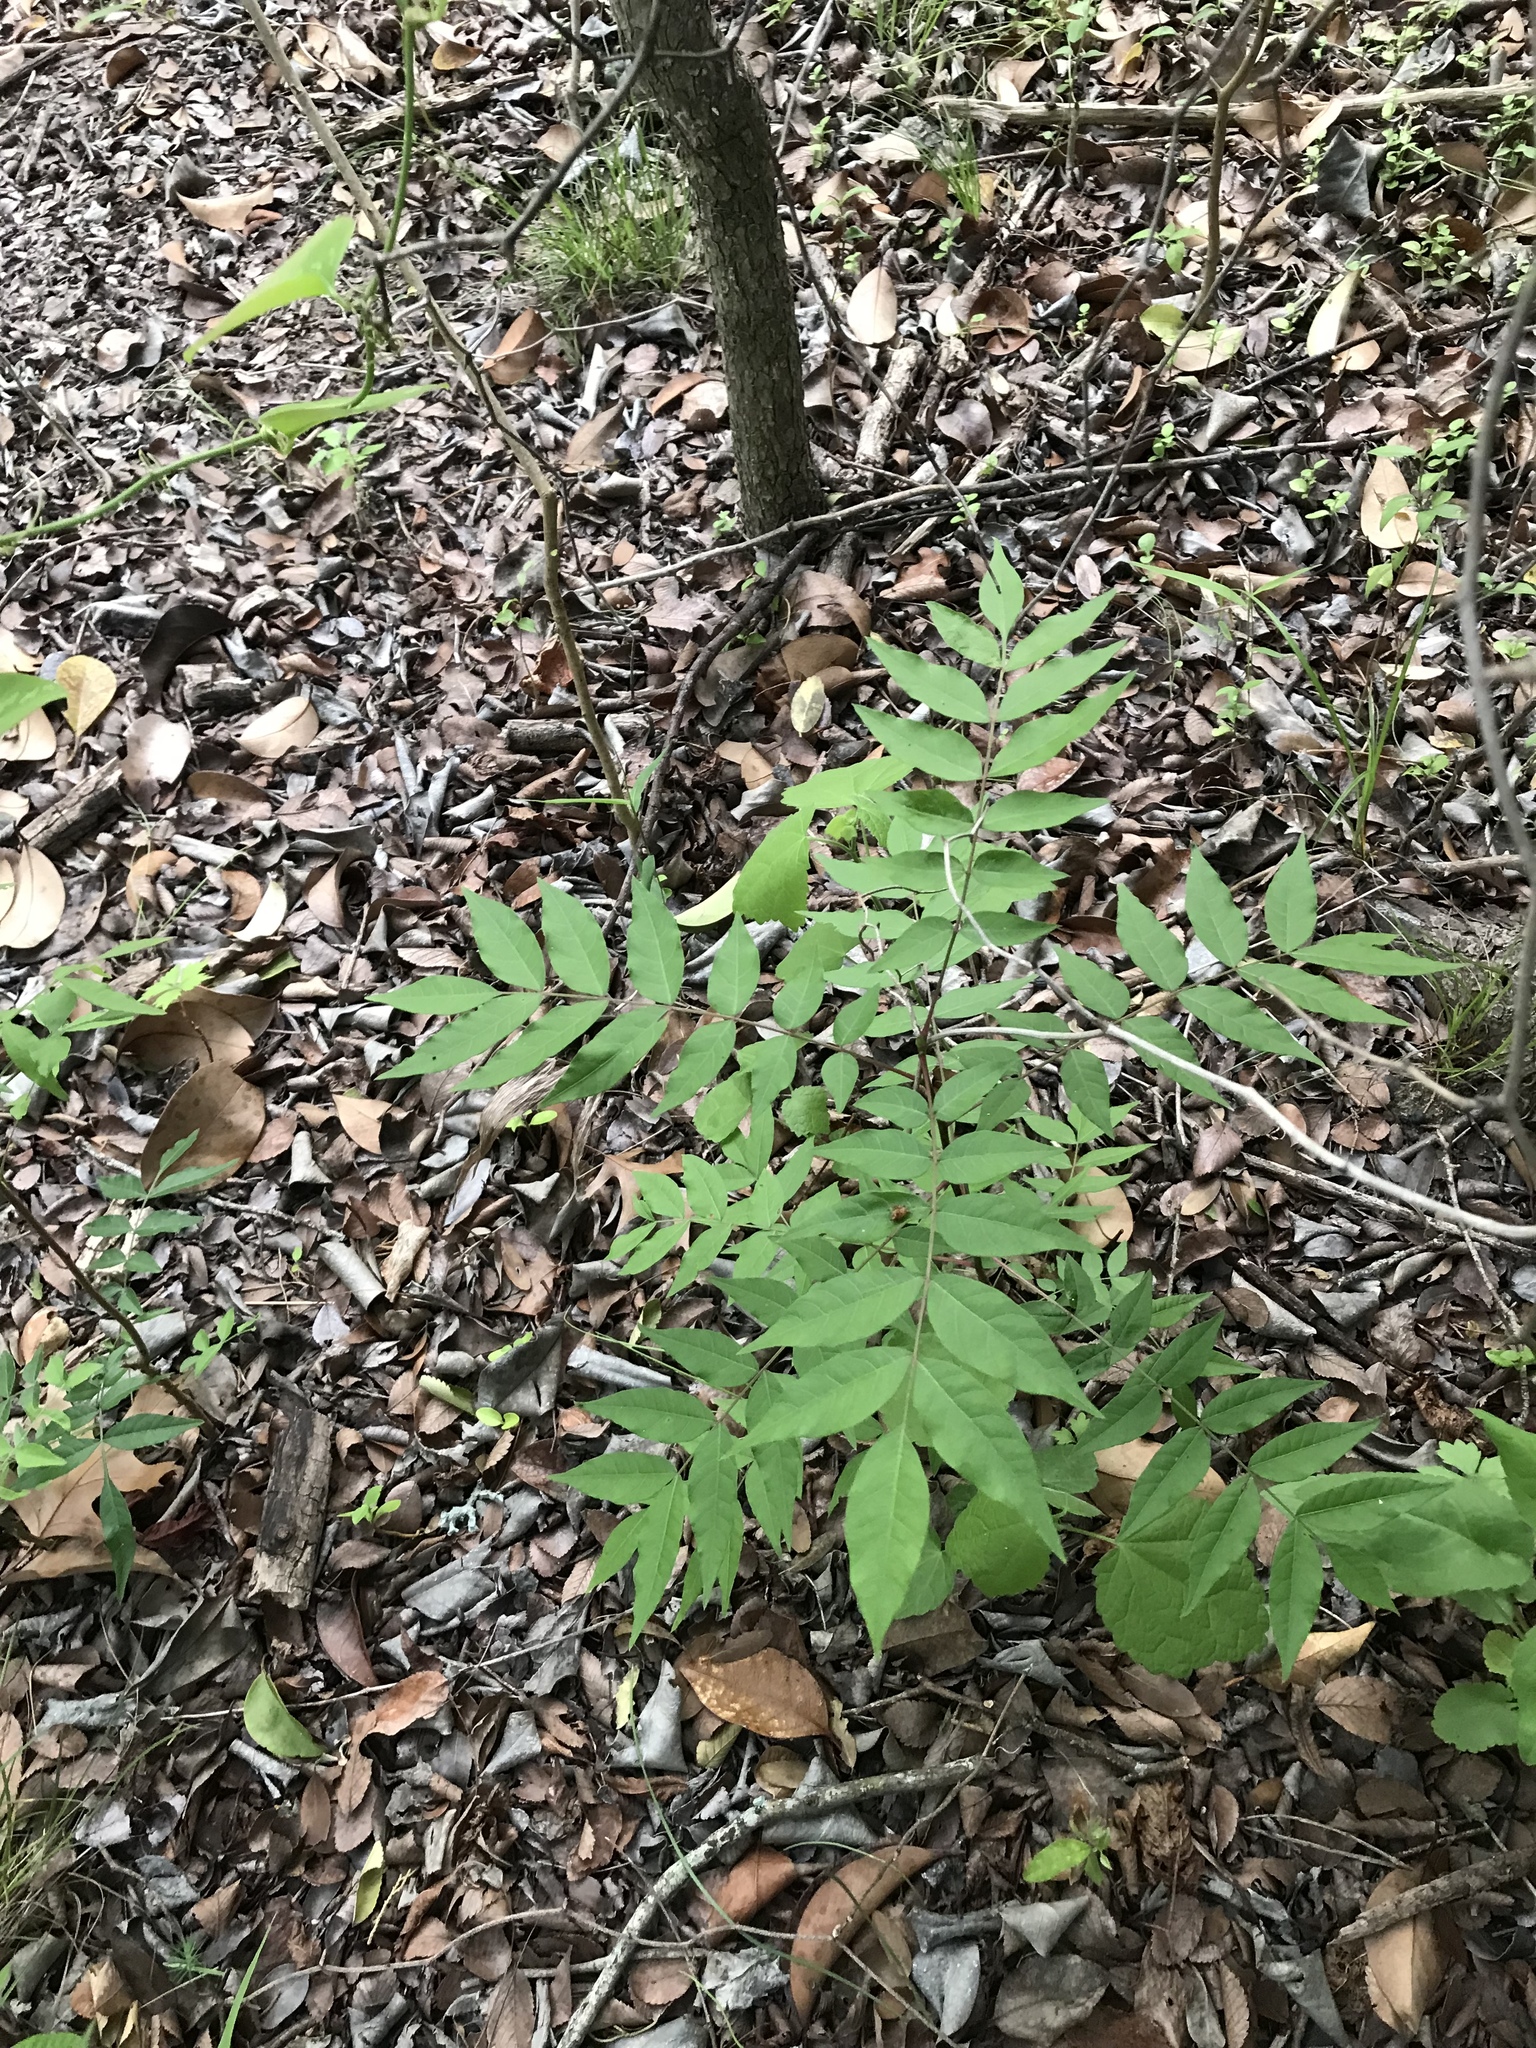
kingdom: Plantae
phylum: Tracheophyta
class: Magnoliopsida
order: Sapindales
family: Anacardiaceae
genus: Pistacia
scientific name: Pistacia chinensis
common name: Chinese pistache
